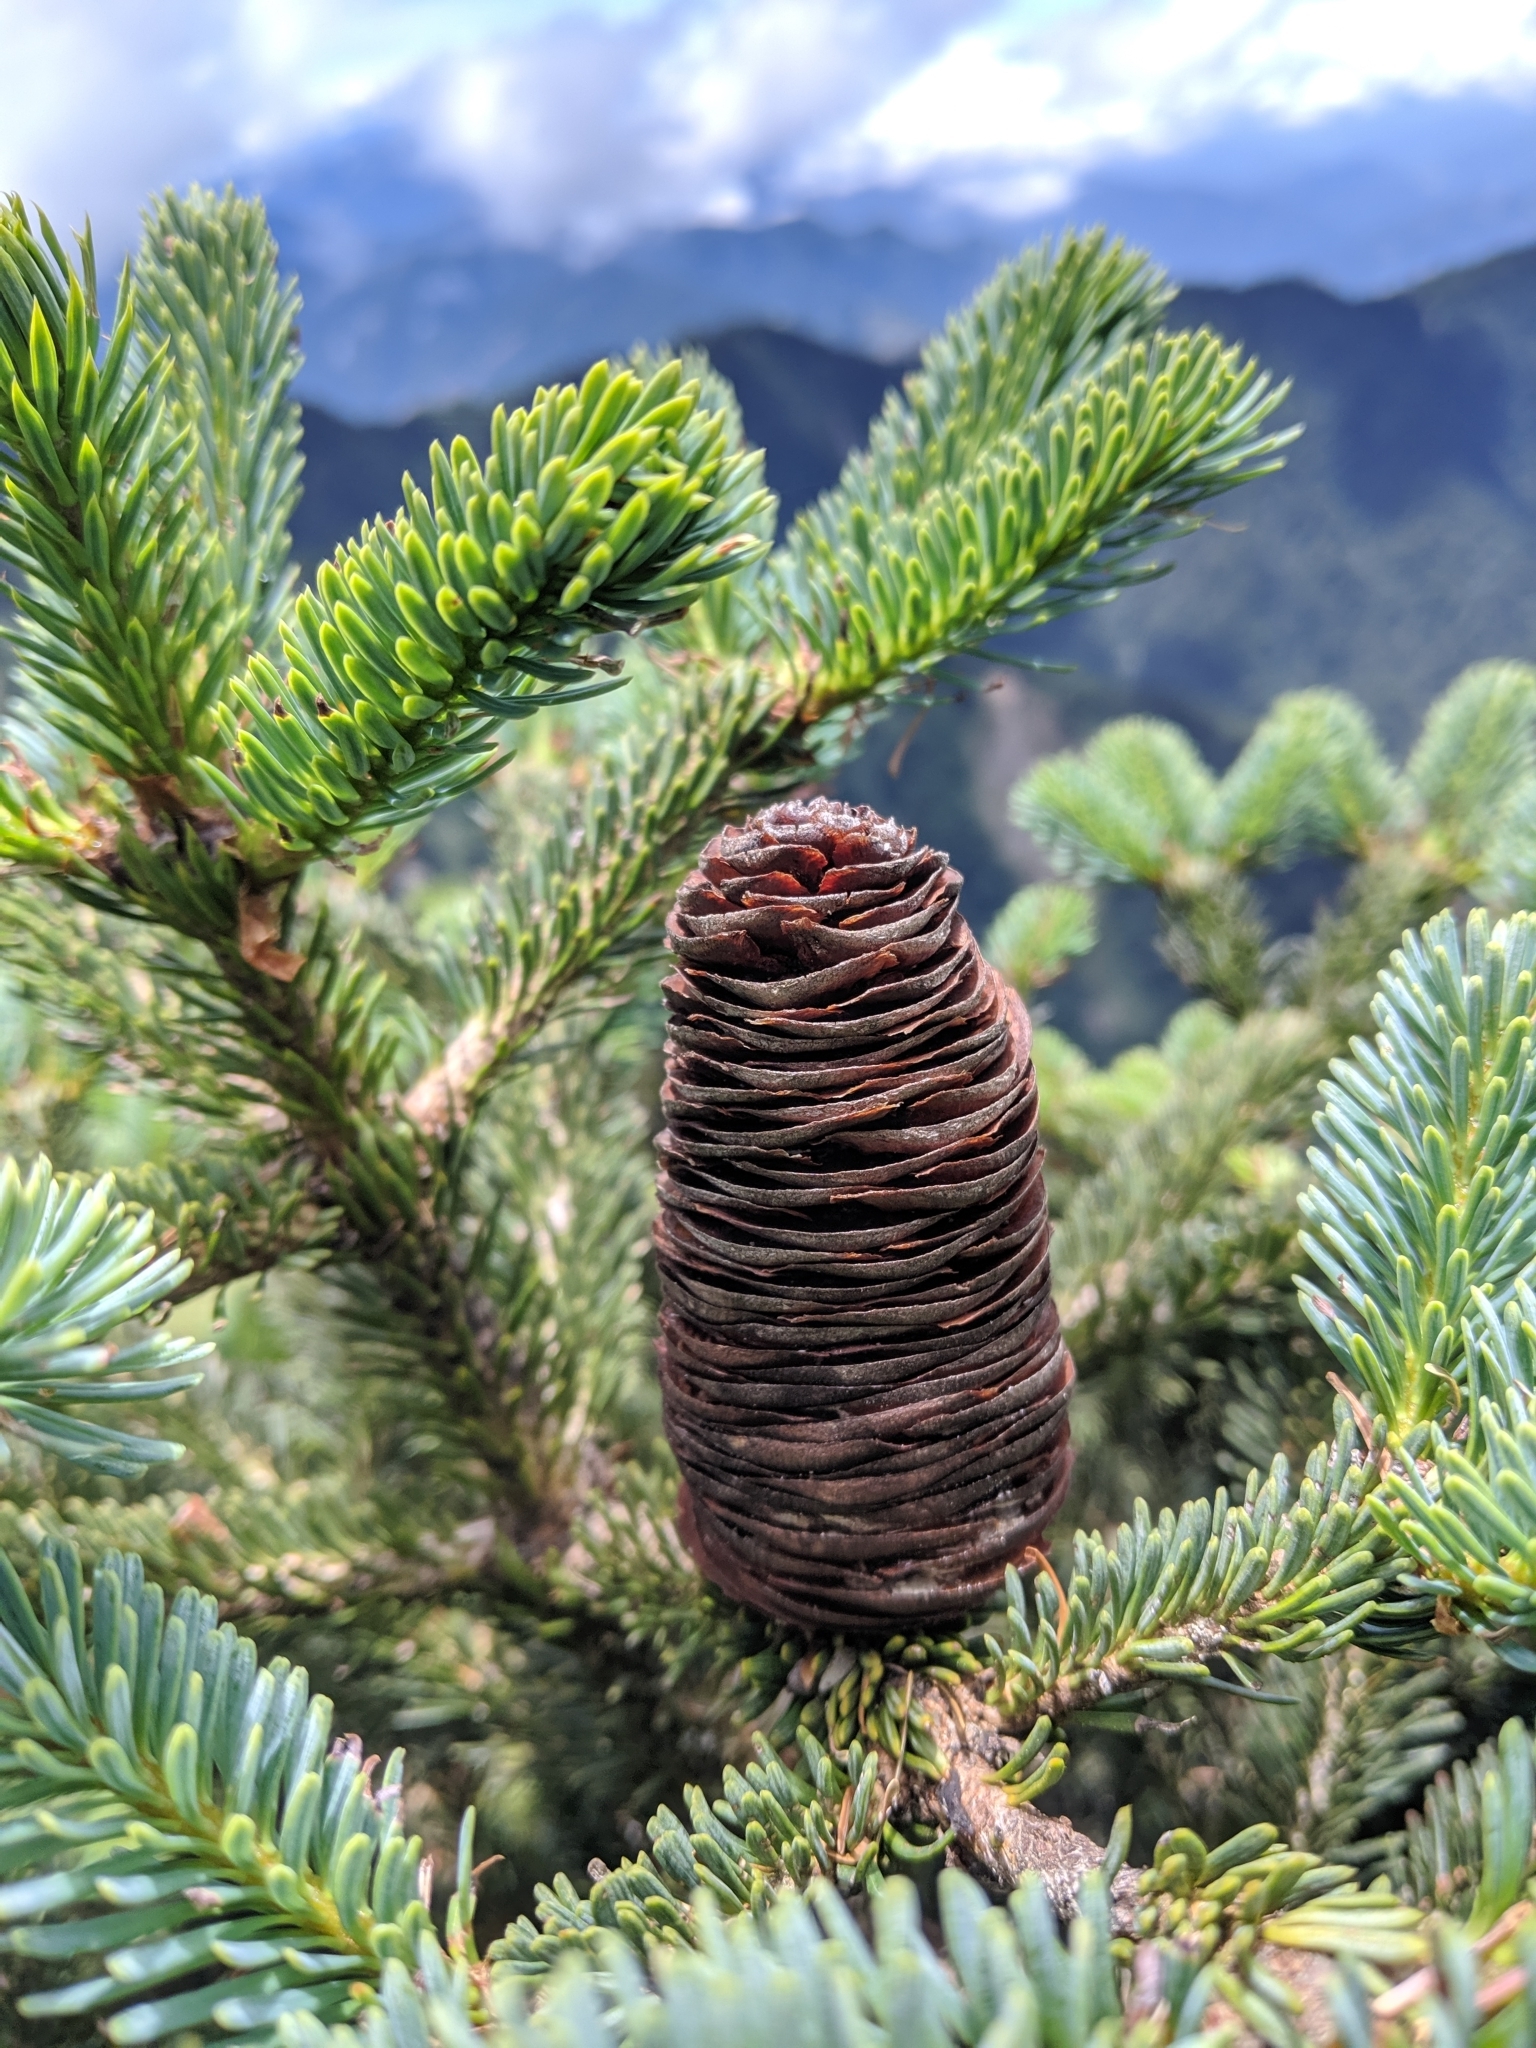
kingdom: Plantae
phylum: Tracheophyta
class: Pinopsida
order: Pinales
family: Pinaceae
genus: Abies
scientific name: Abies kawakamii
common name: Taiwan fir
